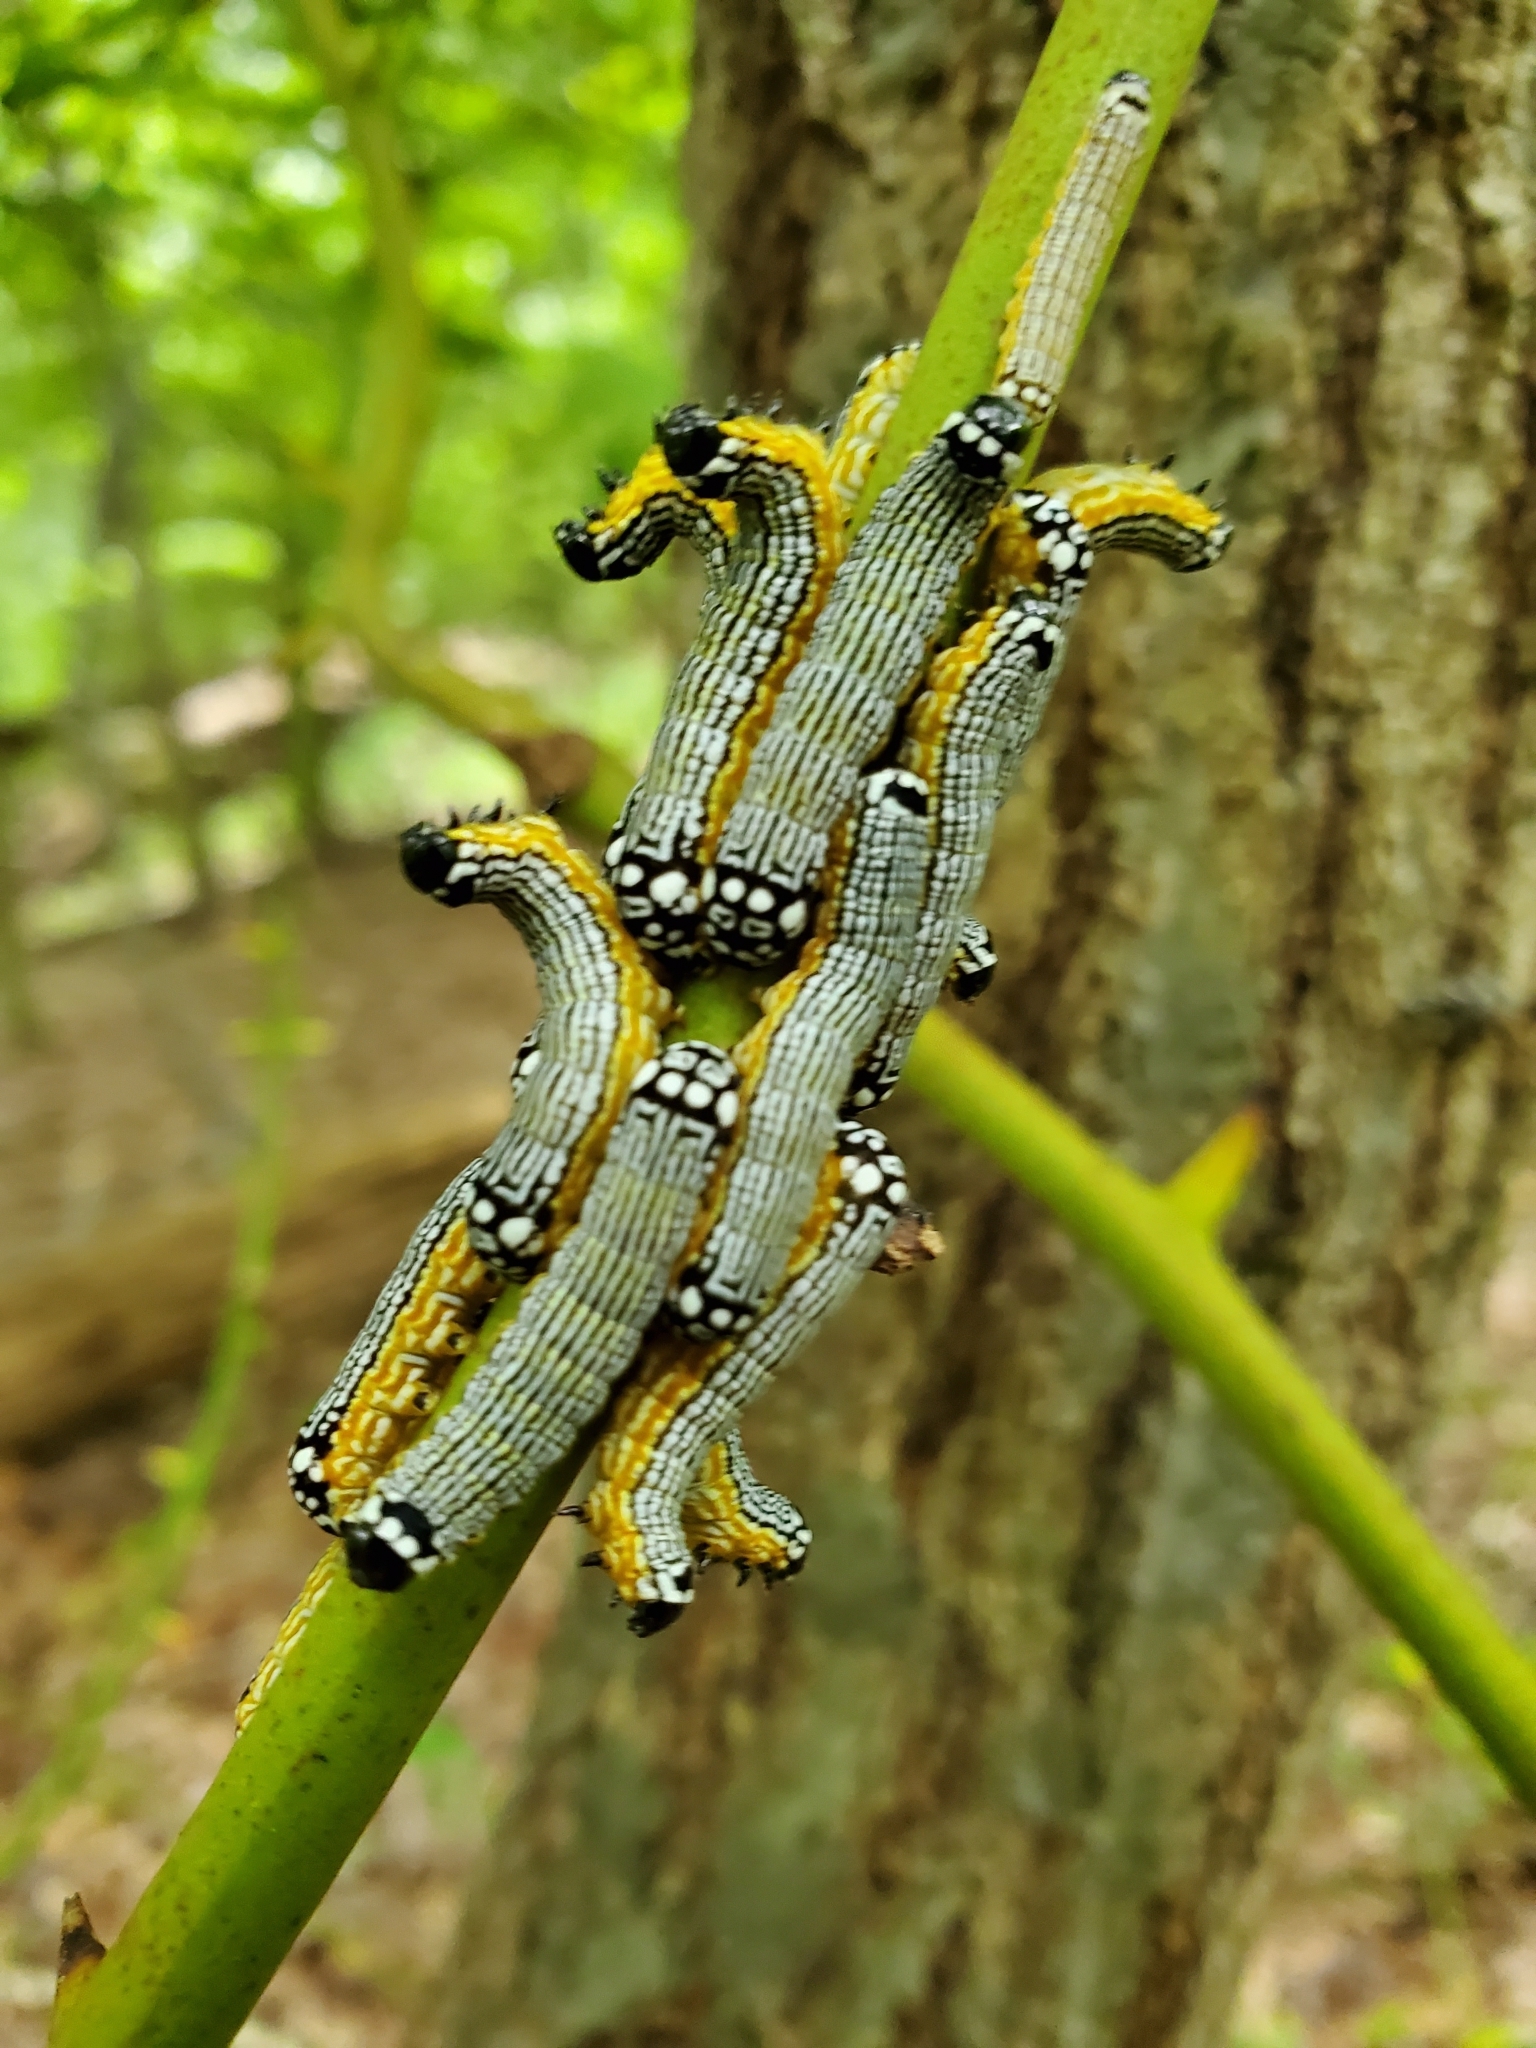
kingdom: Animalia
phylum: Arthropoda
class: Insecta
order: Lepidoptera
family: Noctuidae
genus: Phosphila
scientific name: Phosphila turbulenta
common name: Turbulent phosphila moth
